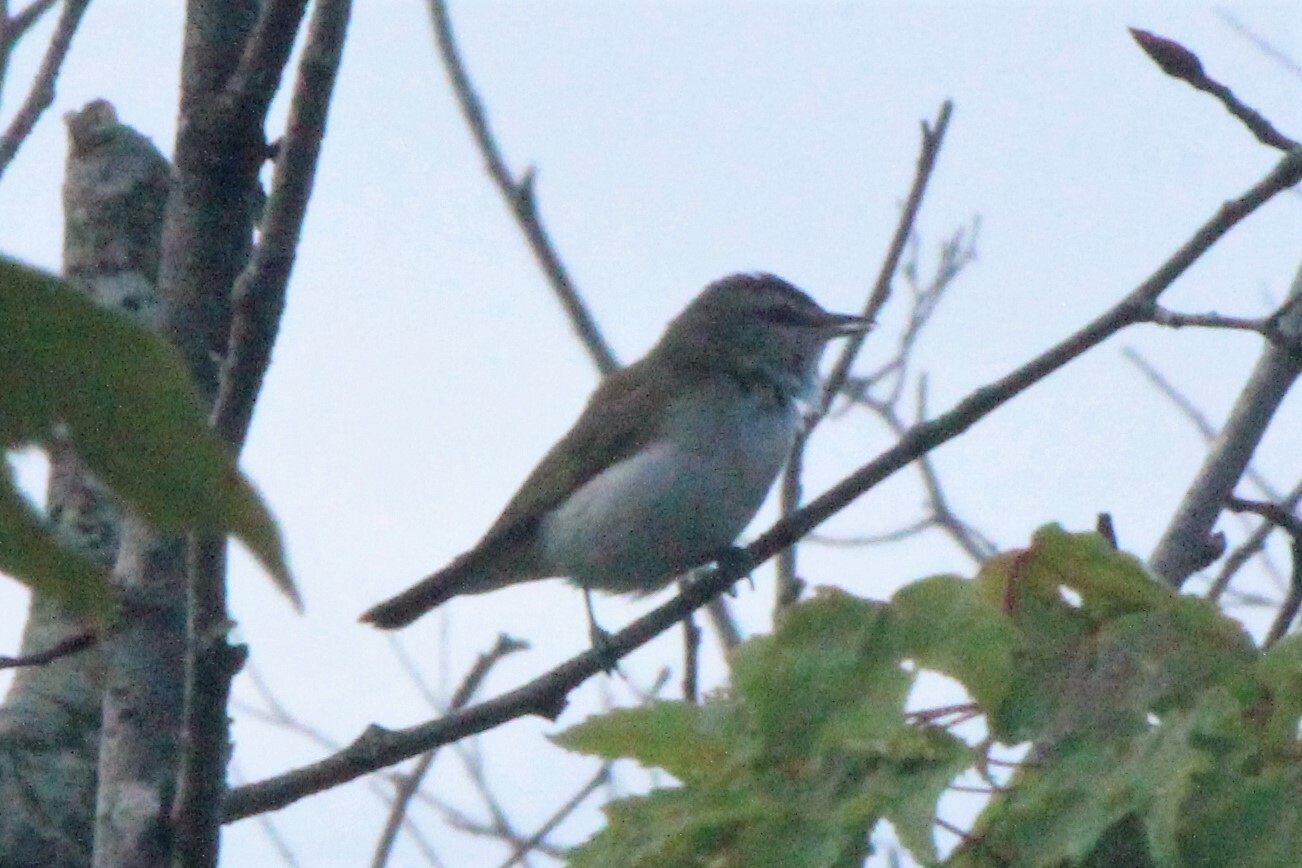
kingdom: Animalia
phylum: Chordata
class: Aves
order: Passeriformes
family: Vireonidae
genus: Vireo
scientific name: Vireo olivaceus
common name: Red-eyed vireo
